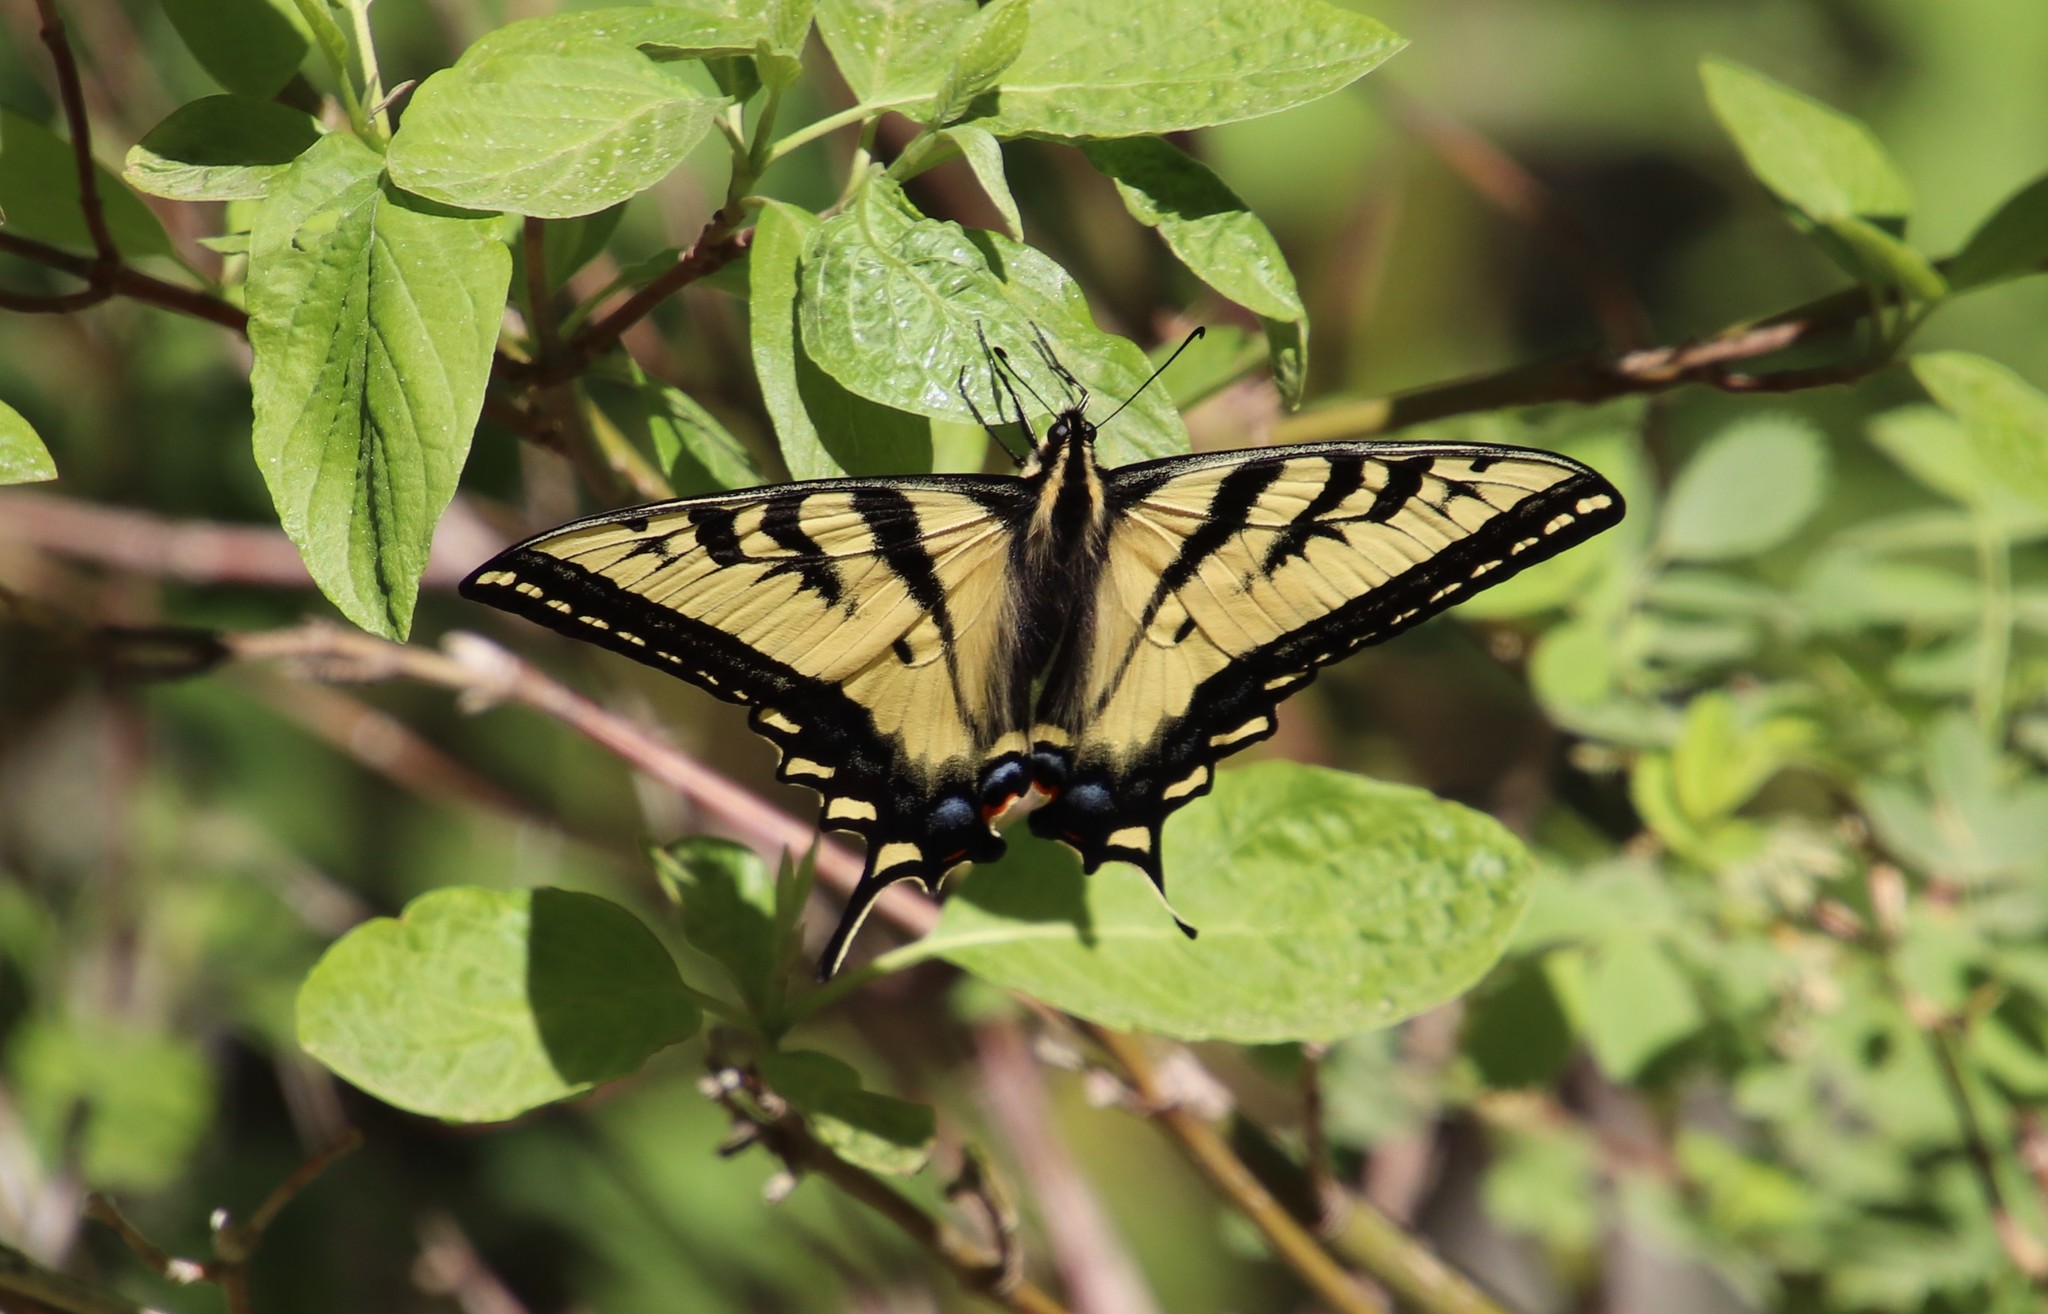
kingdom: Animalia
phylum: Arthropoda
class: Insecta
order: Lepidoptera
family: Papilionidae
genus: Papilio
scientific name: Papilio rutulus
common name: Western tiger swallowtail
